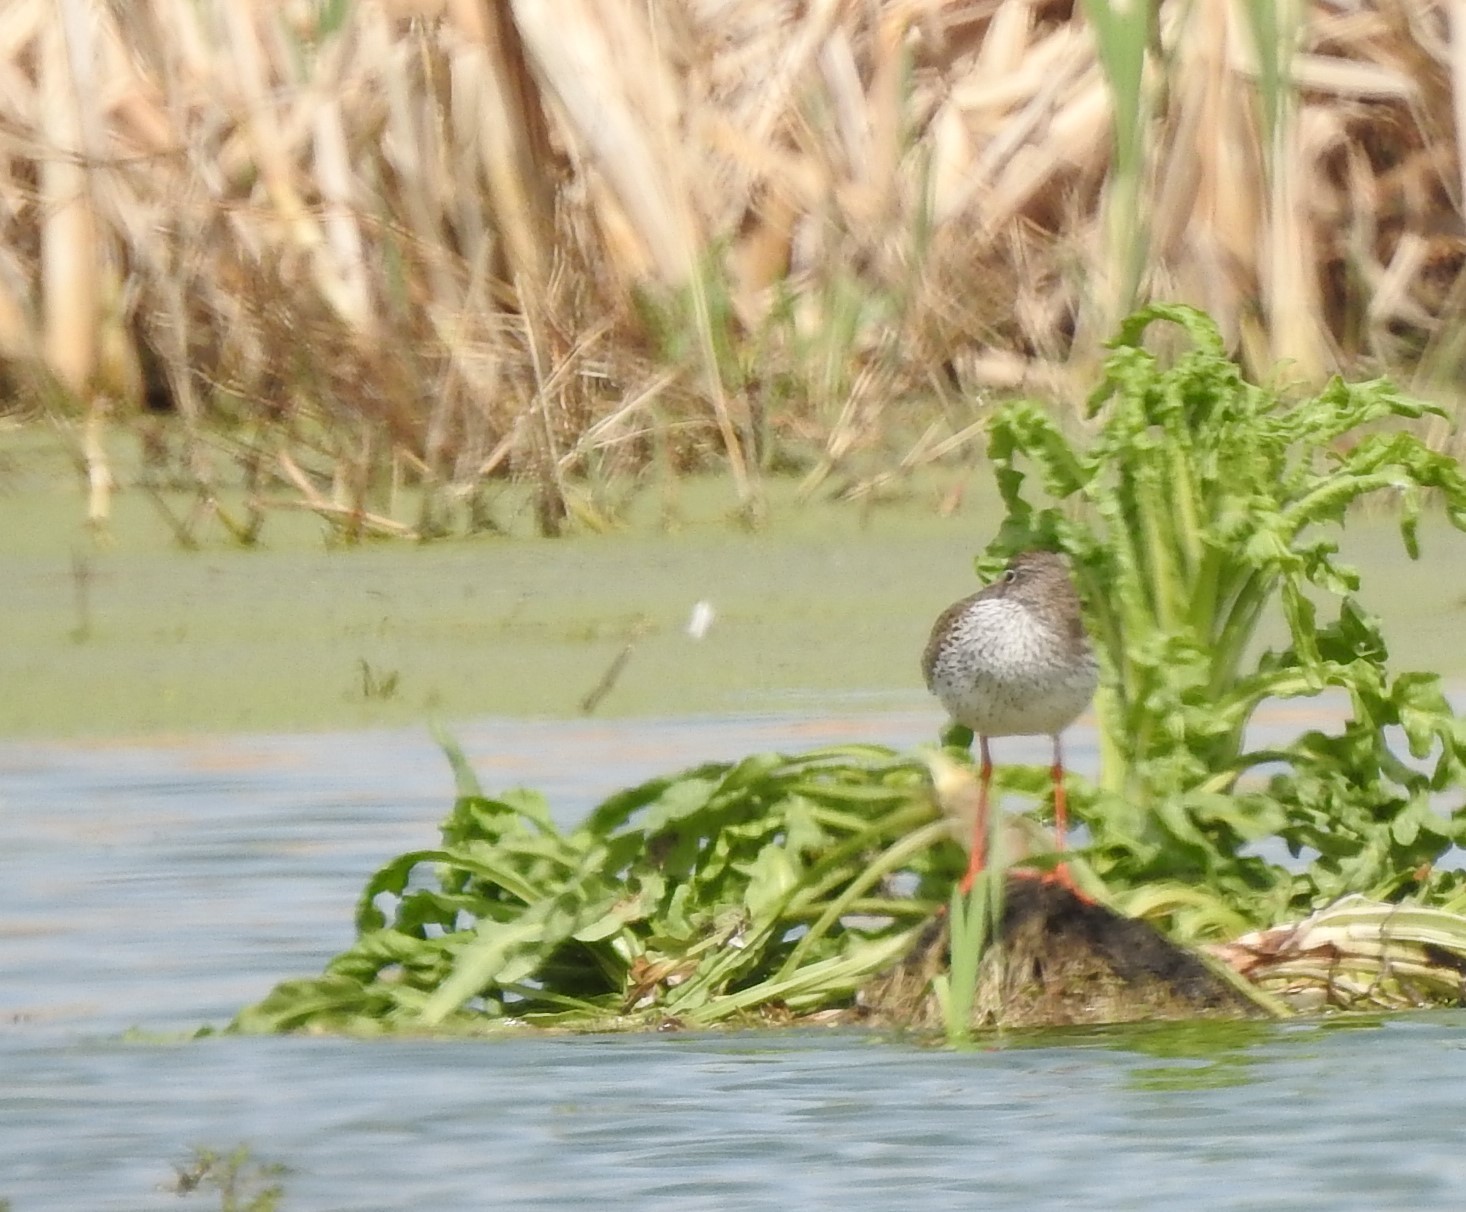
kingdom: Animalia
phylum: Chordata
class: Aves
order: Charadriiformes
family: Scolopacidae
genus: Tringa
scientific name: Tringa totanus
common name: Common redshank
